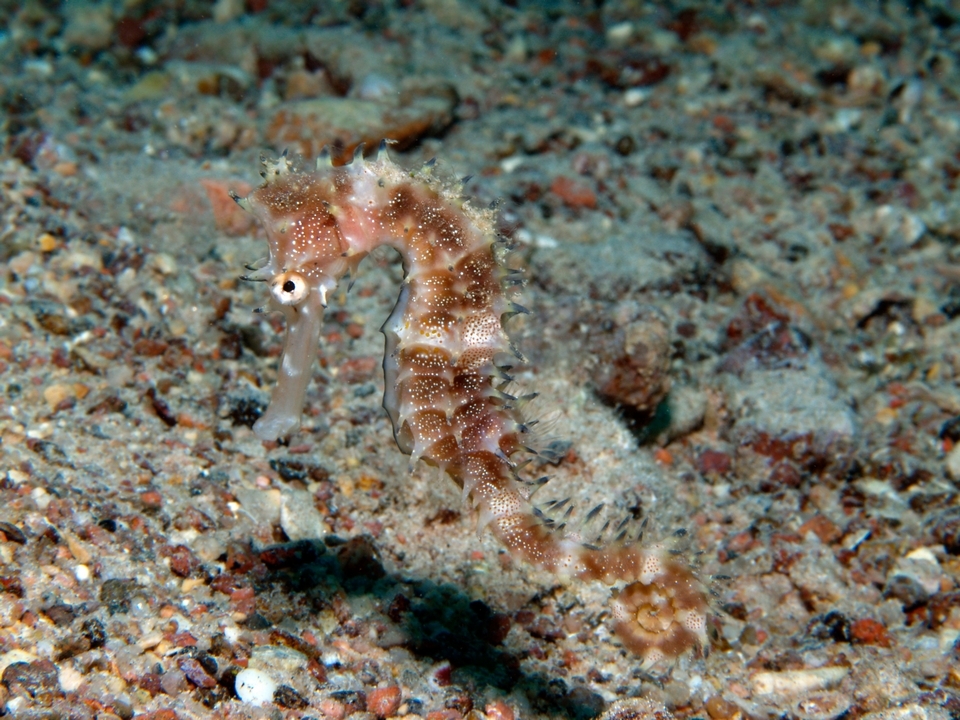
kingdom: Animalia
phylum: Chordata
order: Syngnathiformes
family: Syngnathidae
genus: Hippocampus
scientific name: Hippocampus jayakari
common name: Jayakar's seahorse
